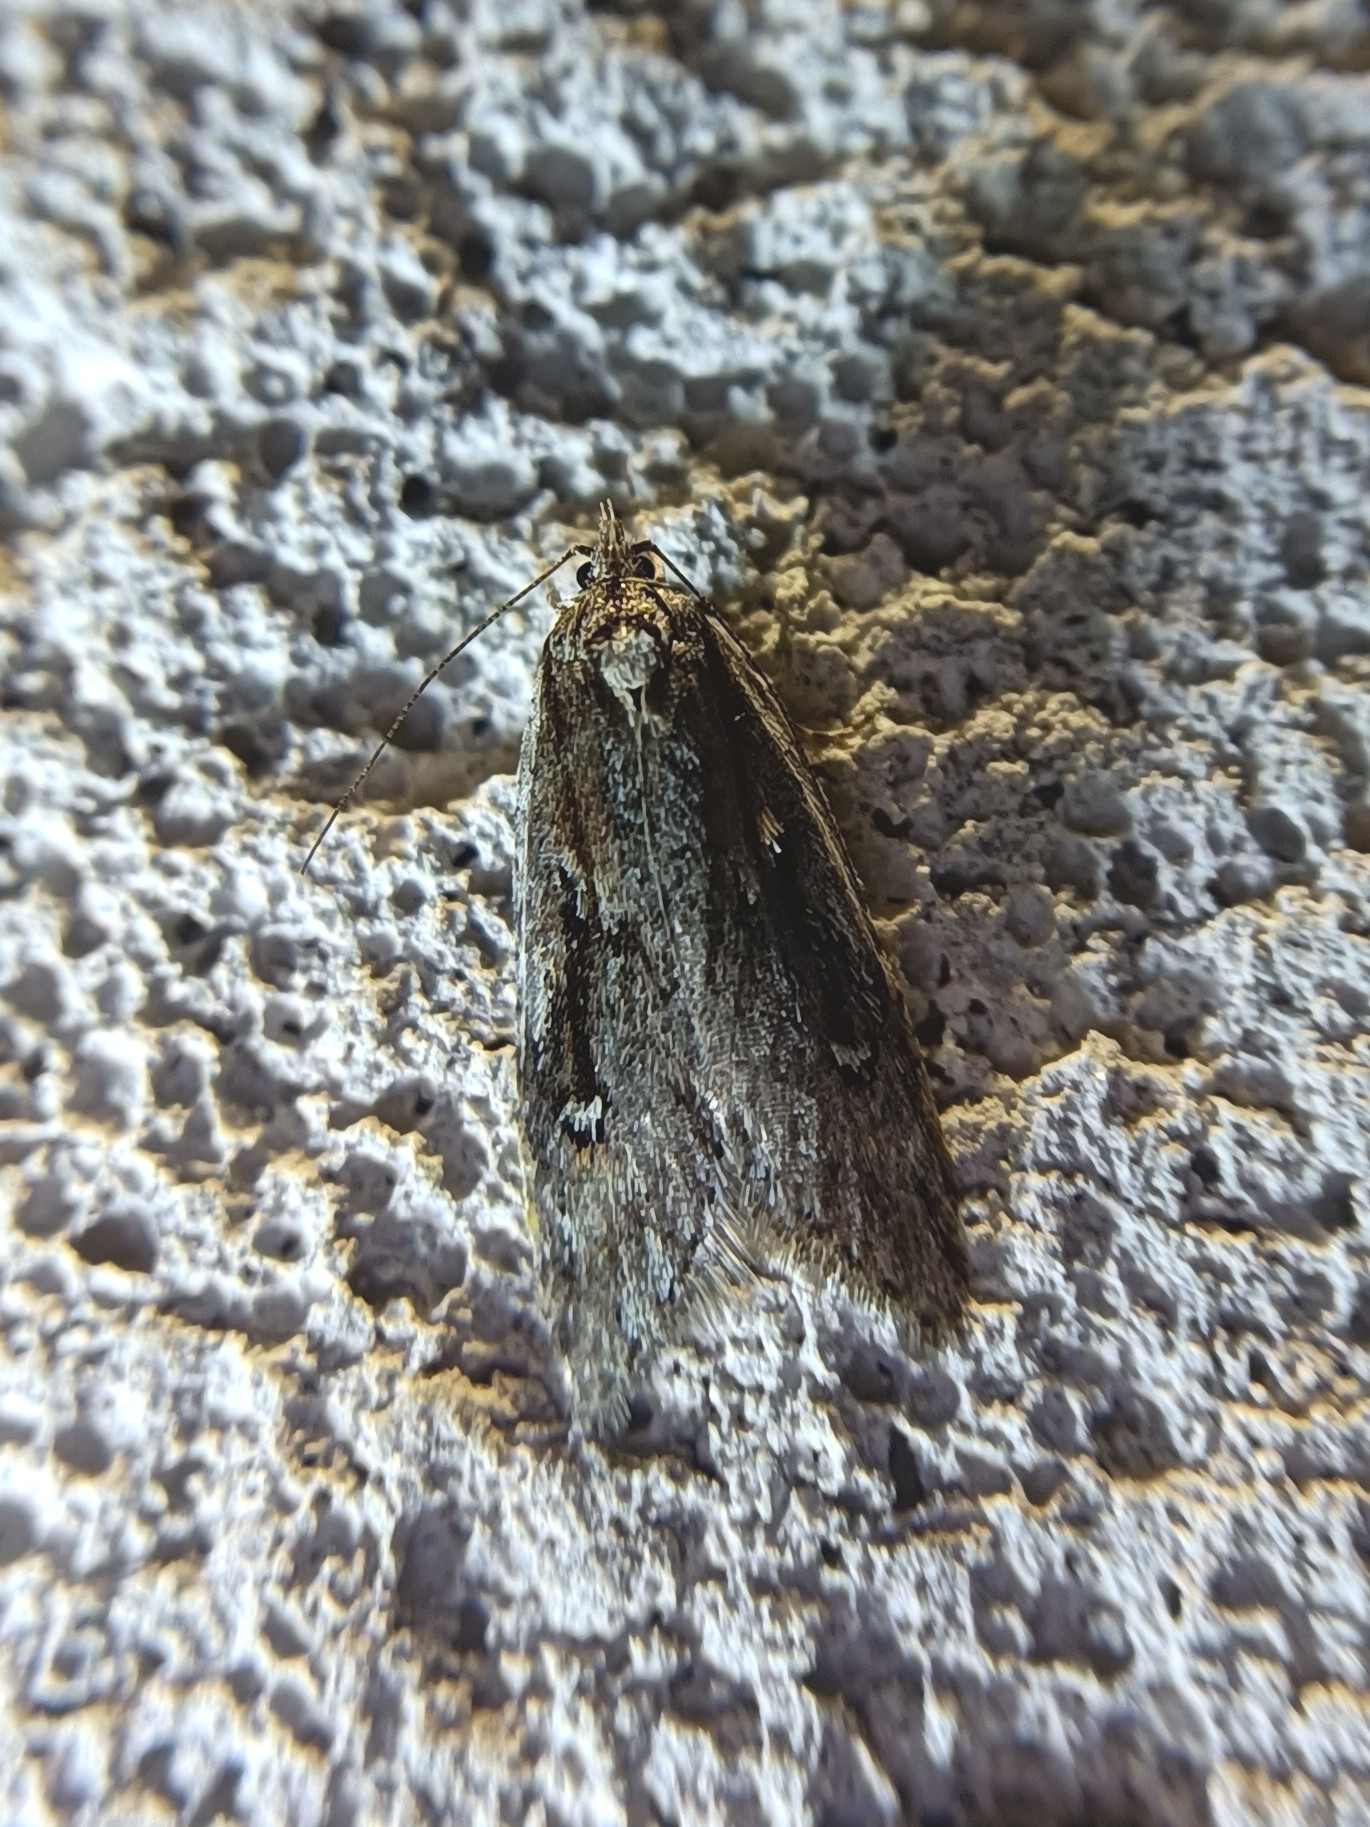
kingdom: Animalia
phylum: Arthropoda
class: Insecta
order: Lepidoptera
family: Depressariidae
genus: Semioscopis
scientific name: Semioscopis anella
